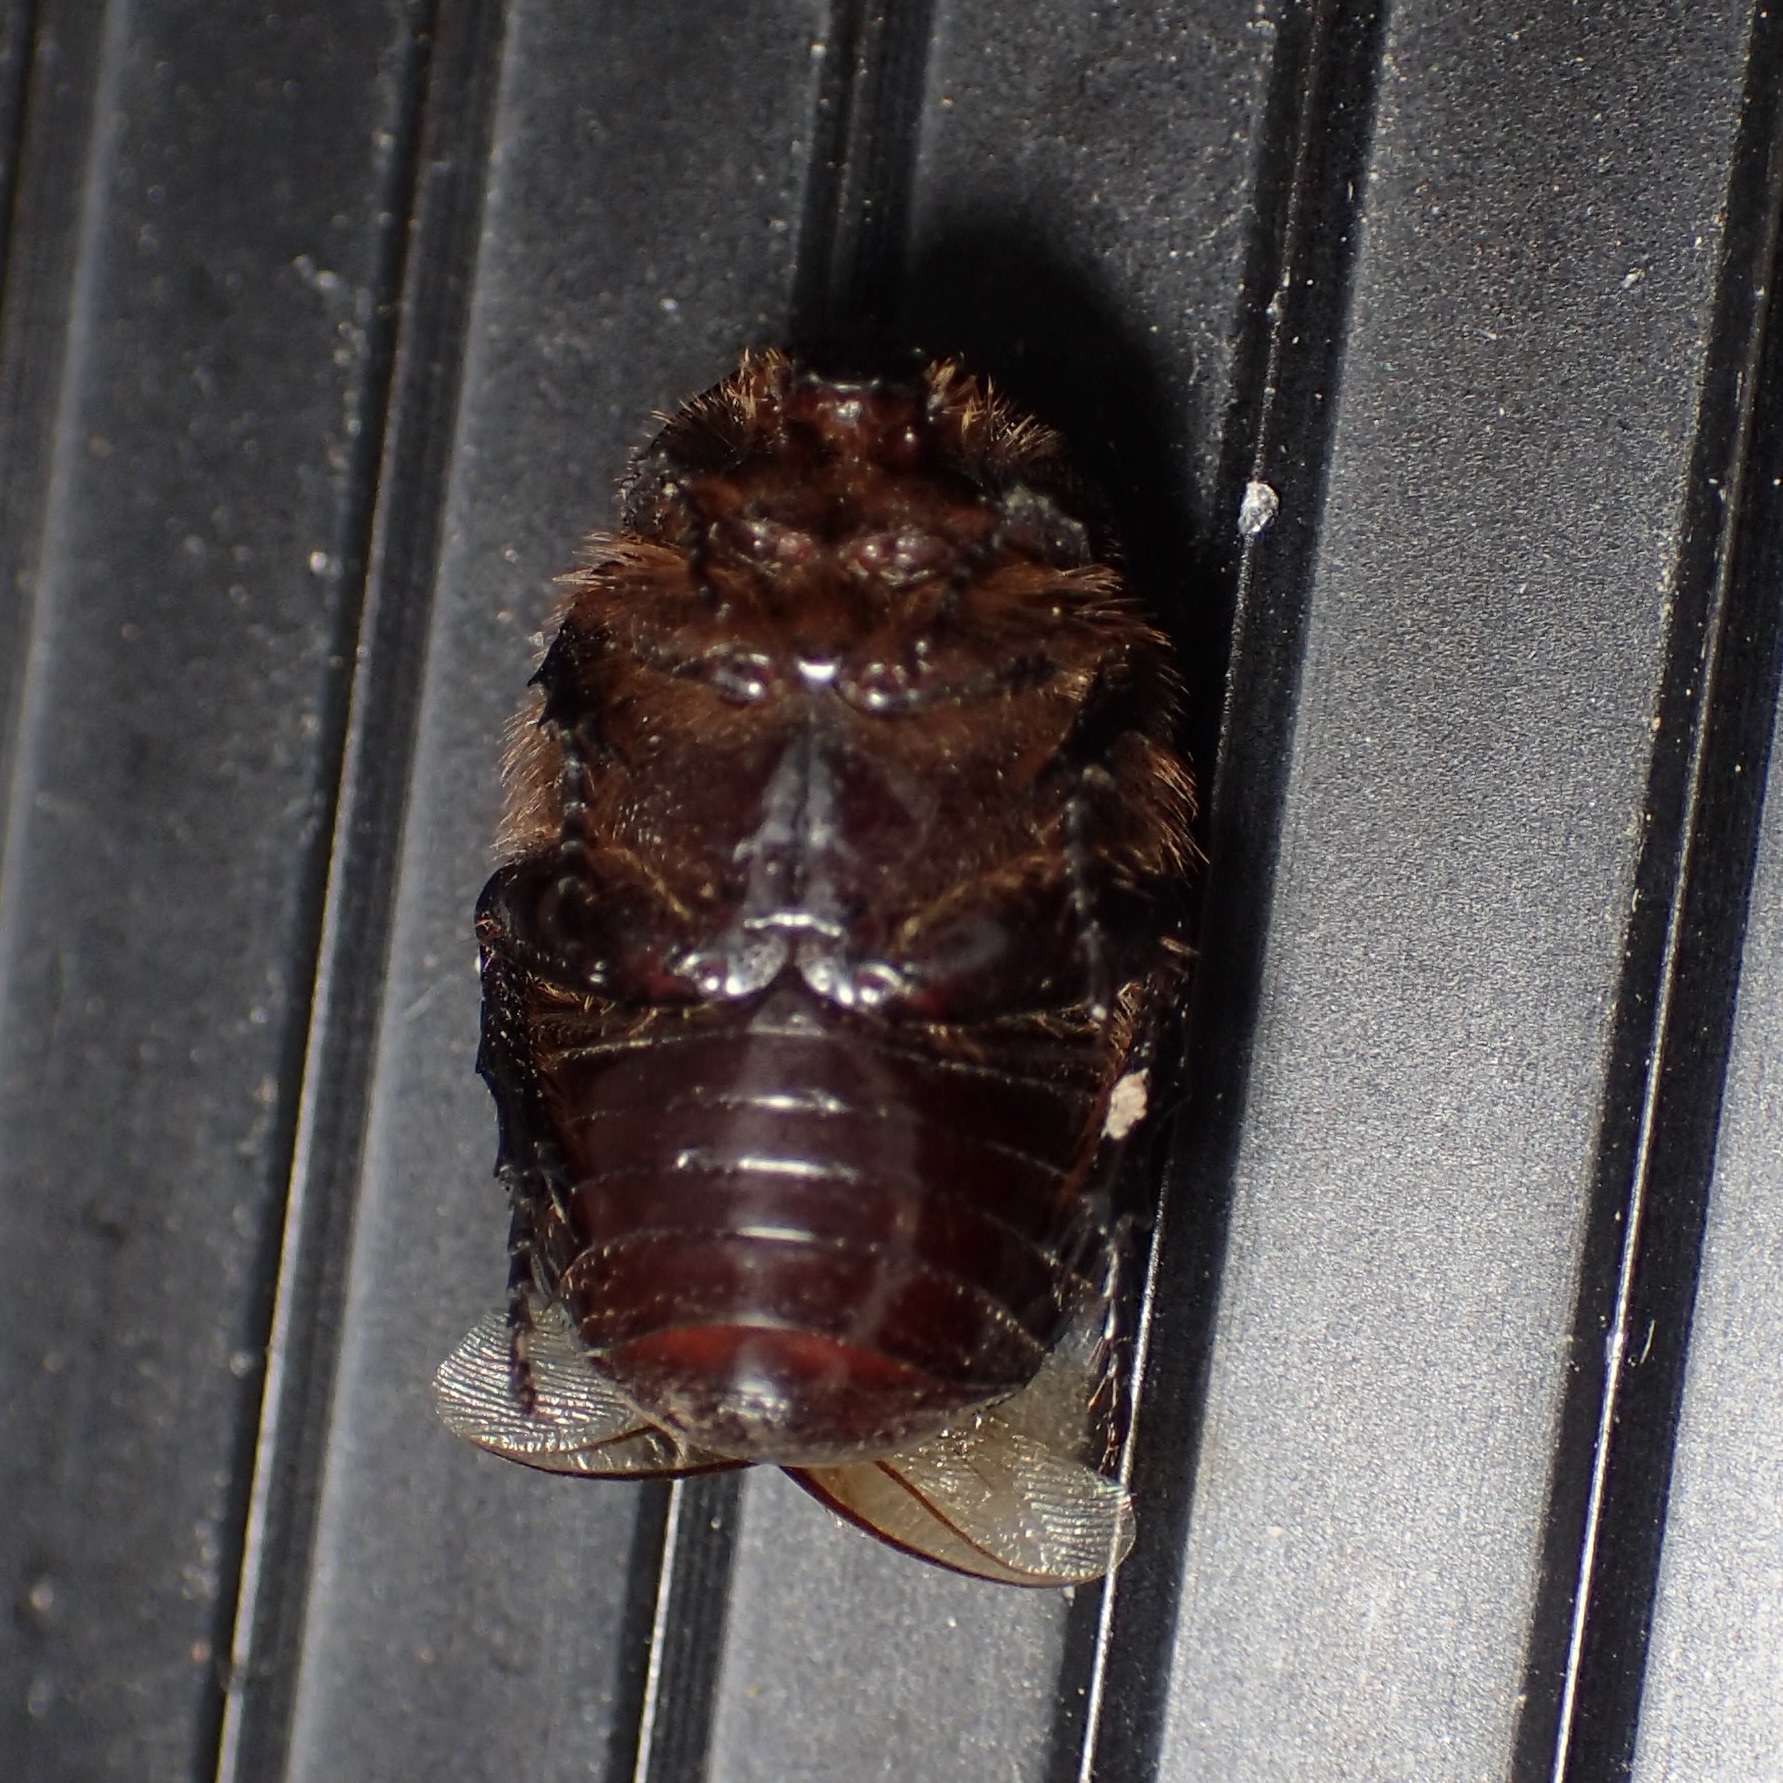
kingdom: Animalia
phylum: Arthropoda
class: Insecta
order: Coleoptera
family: Scarabaeidae
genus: Euphoria
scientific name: Euphoria verticalis
